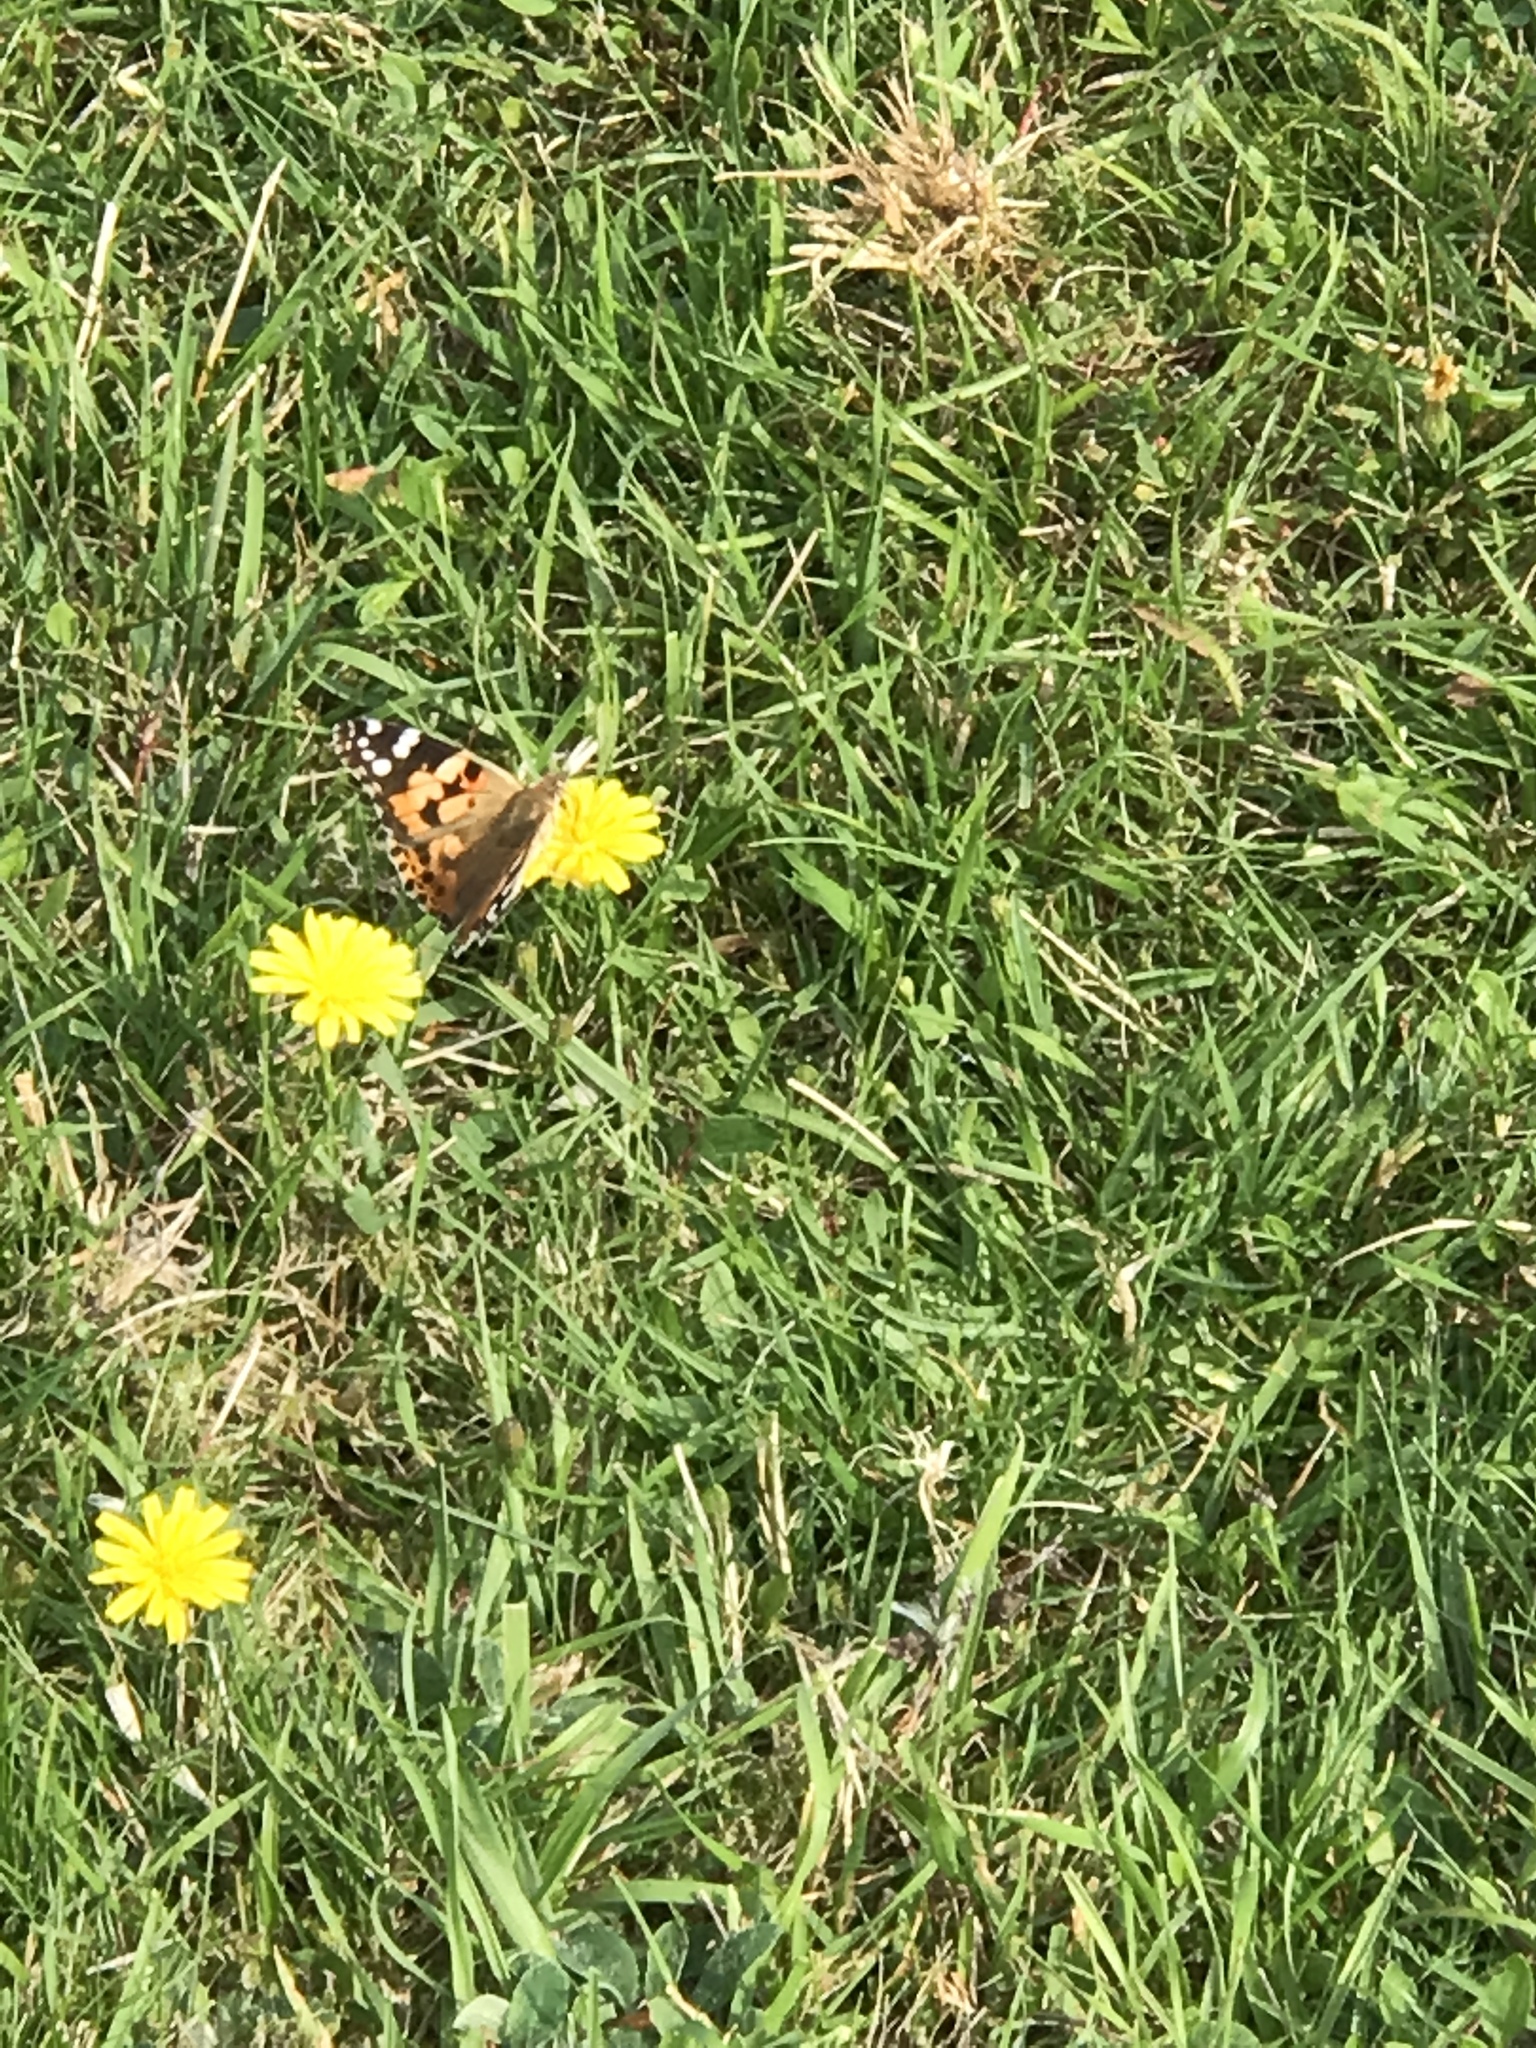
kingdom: Animalia
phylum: Arthropoda
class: Insecta
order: Lepidoptera
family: Nymphalidae
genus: Vanessa
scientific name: Vanessa cardui
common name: Painted lady
